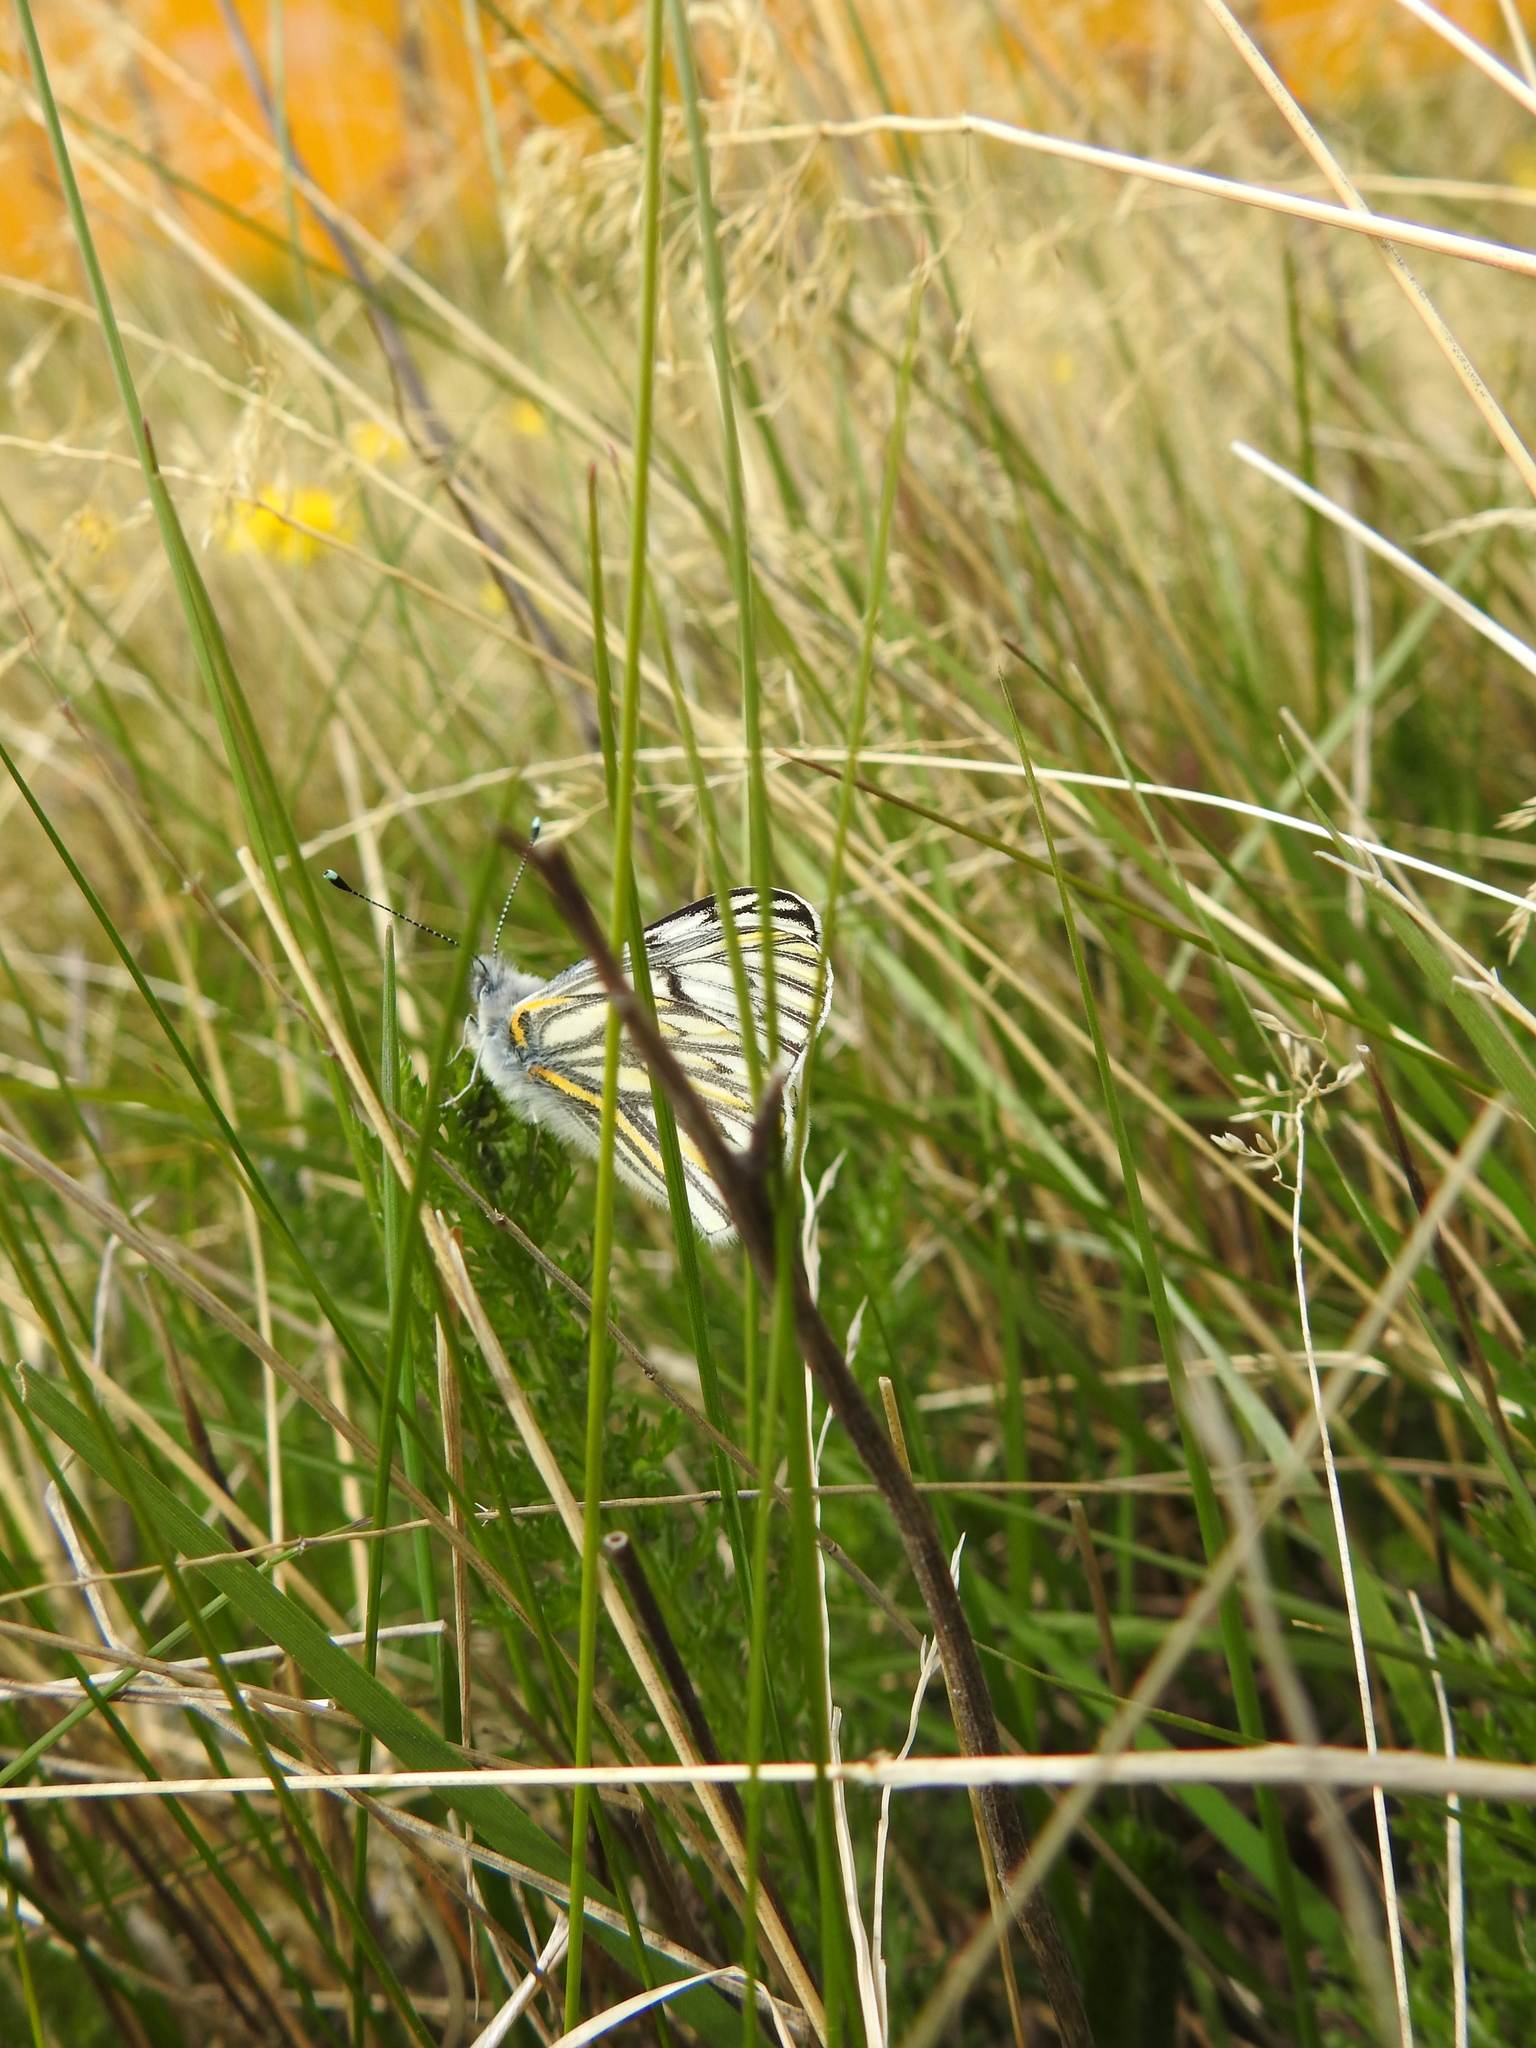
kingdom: Animalia
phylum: Arthropoda
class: Insecta
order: Lepidoptera
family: Pieridae
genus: Tatochila
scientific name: Tatochila theodice
